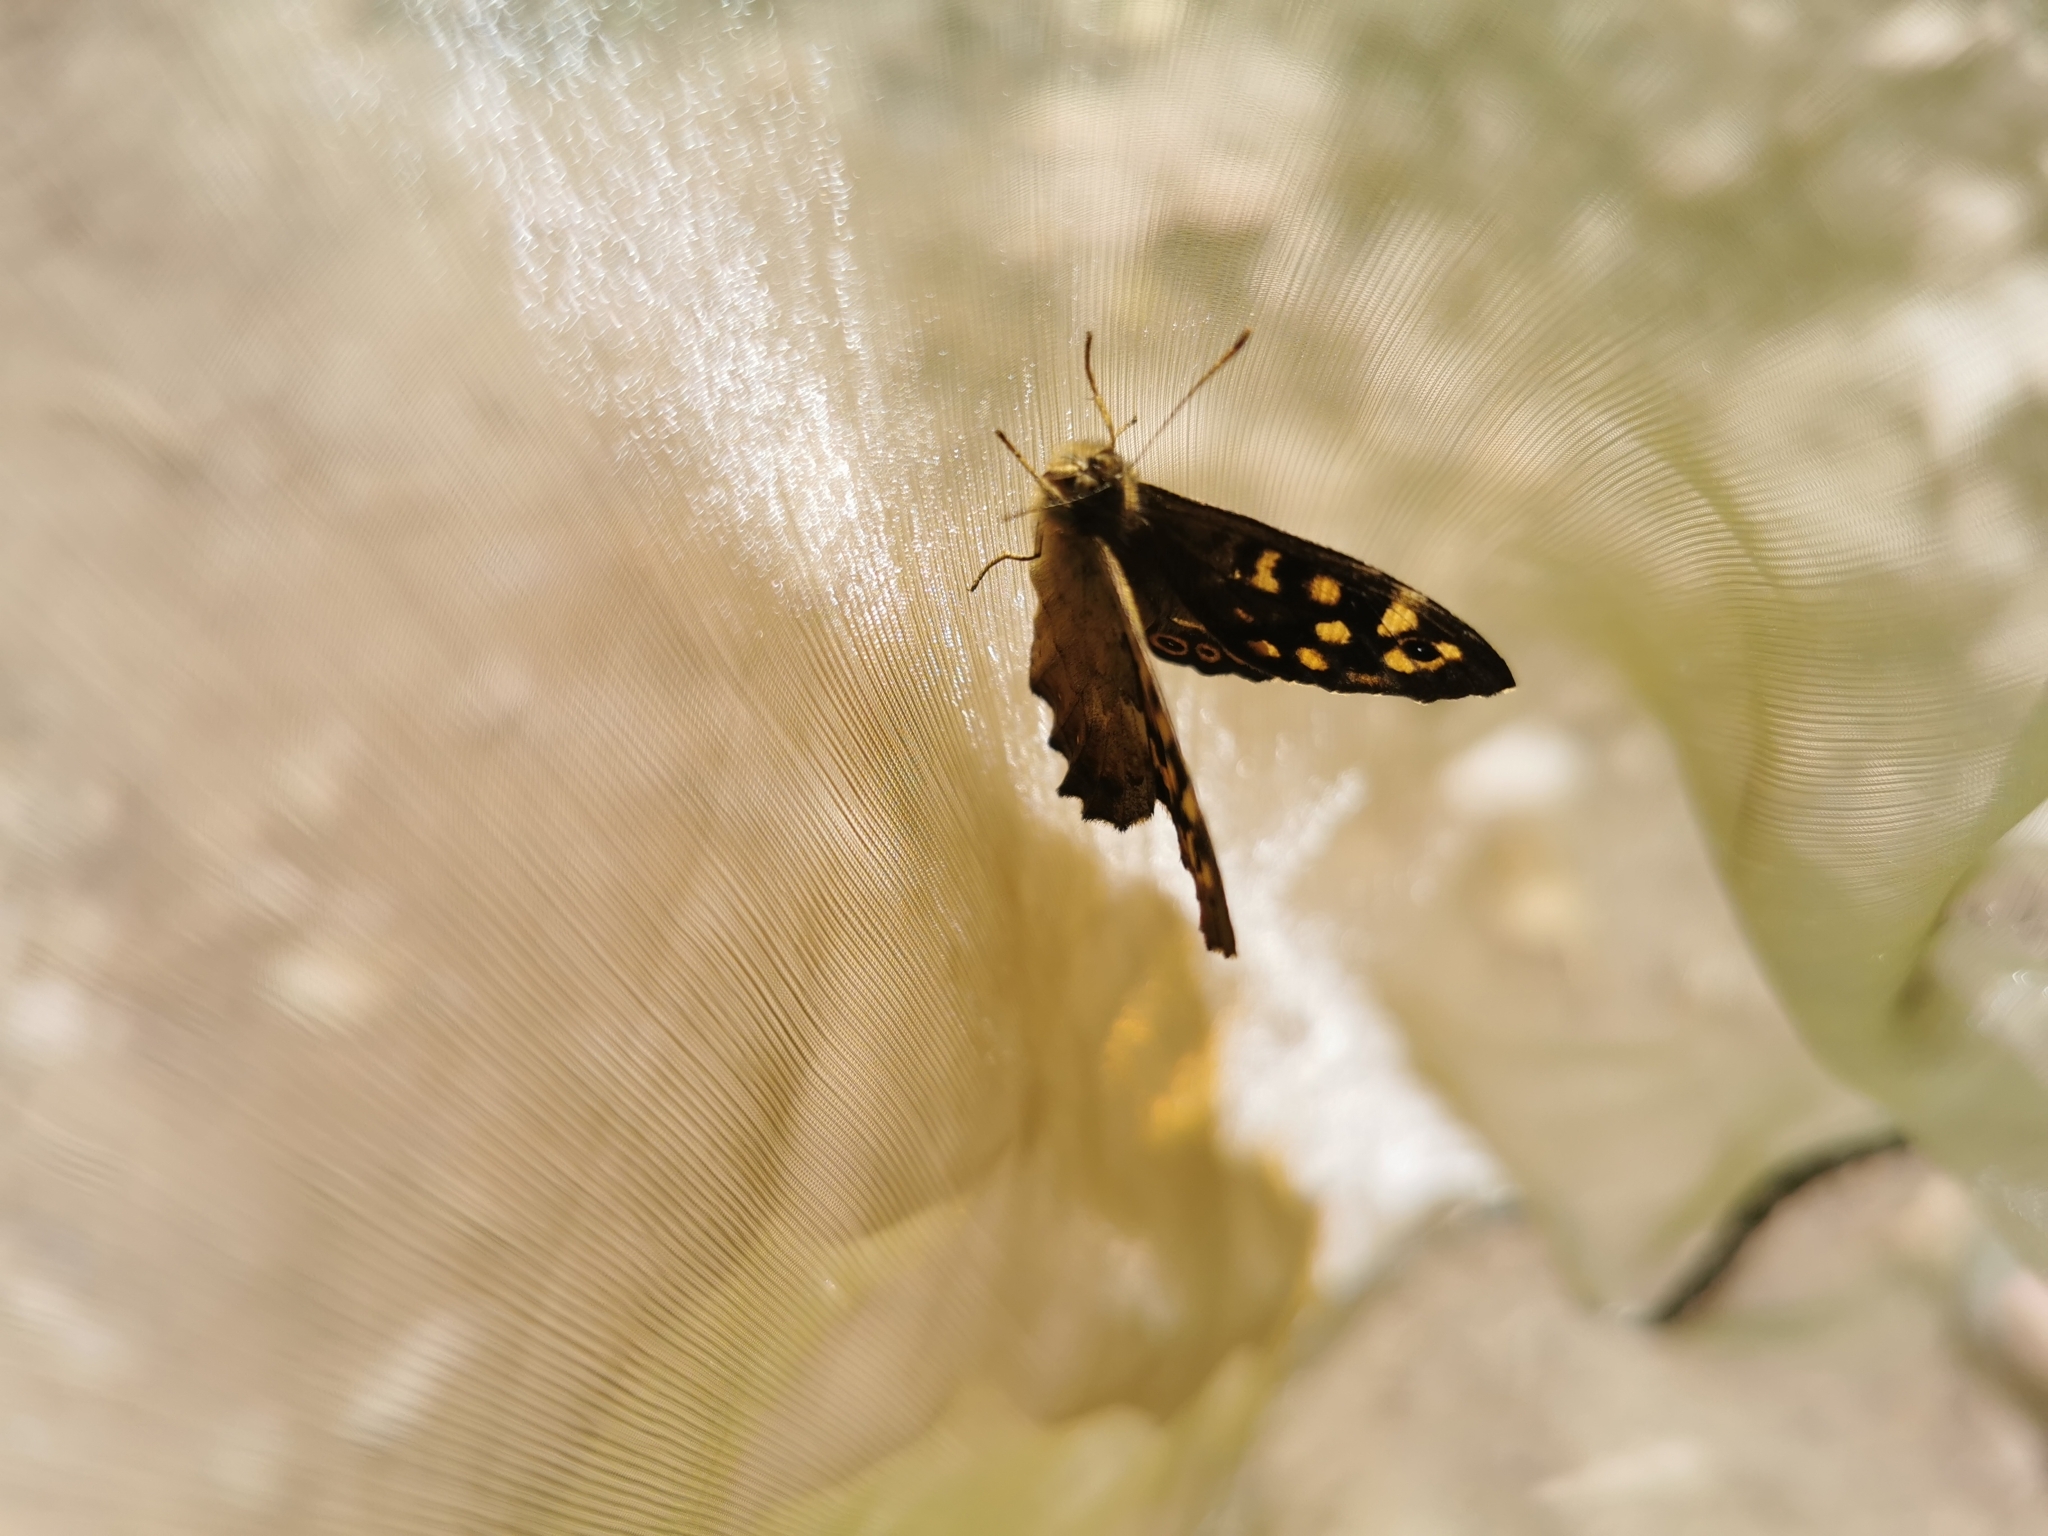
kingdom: Animalia
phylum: Arthropoda
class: Insecta
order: Lepidoptera
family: Nymphalidae
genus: Pararge
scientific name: Pararge aegeria
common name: Speckled wood
